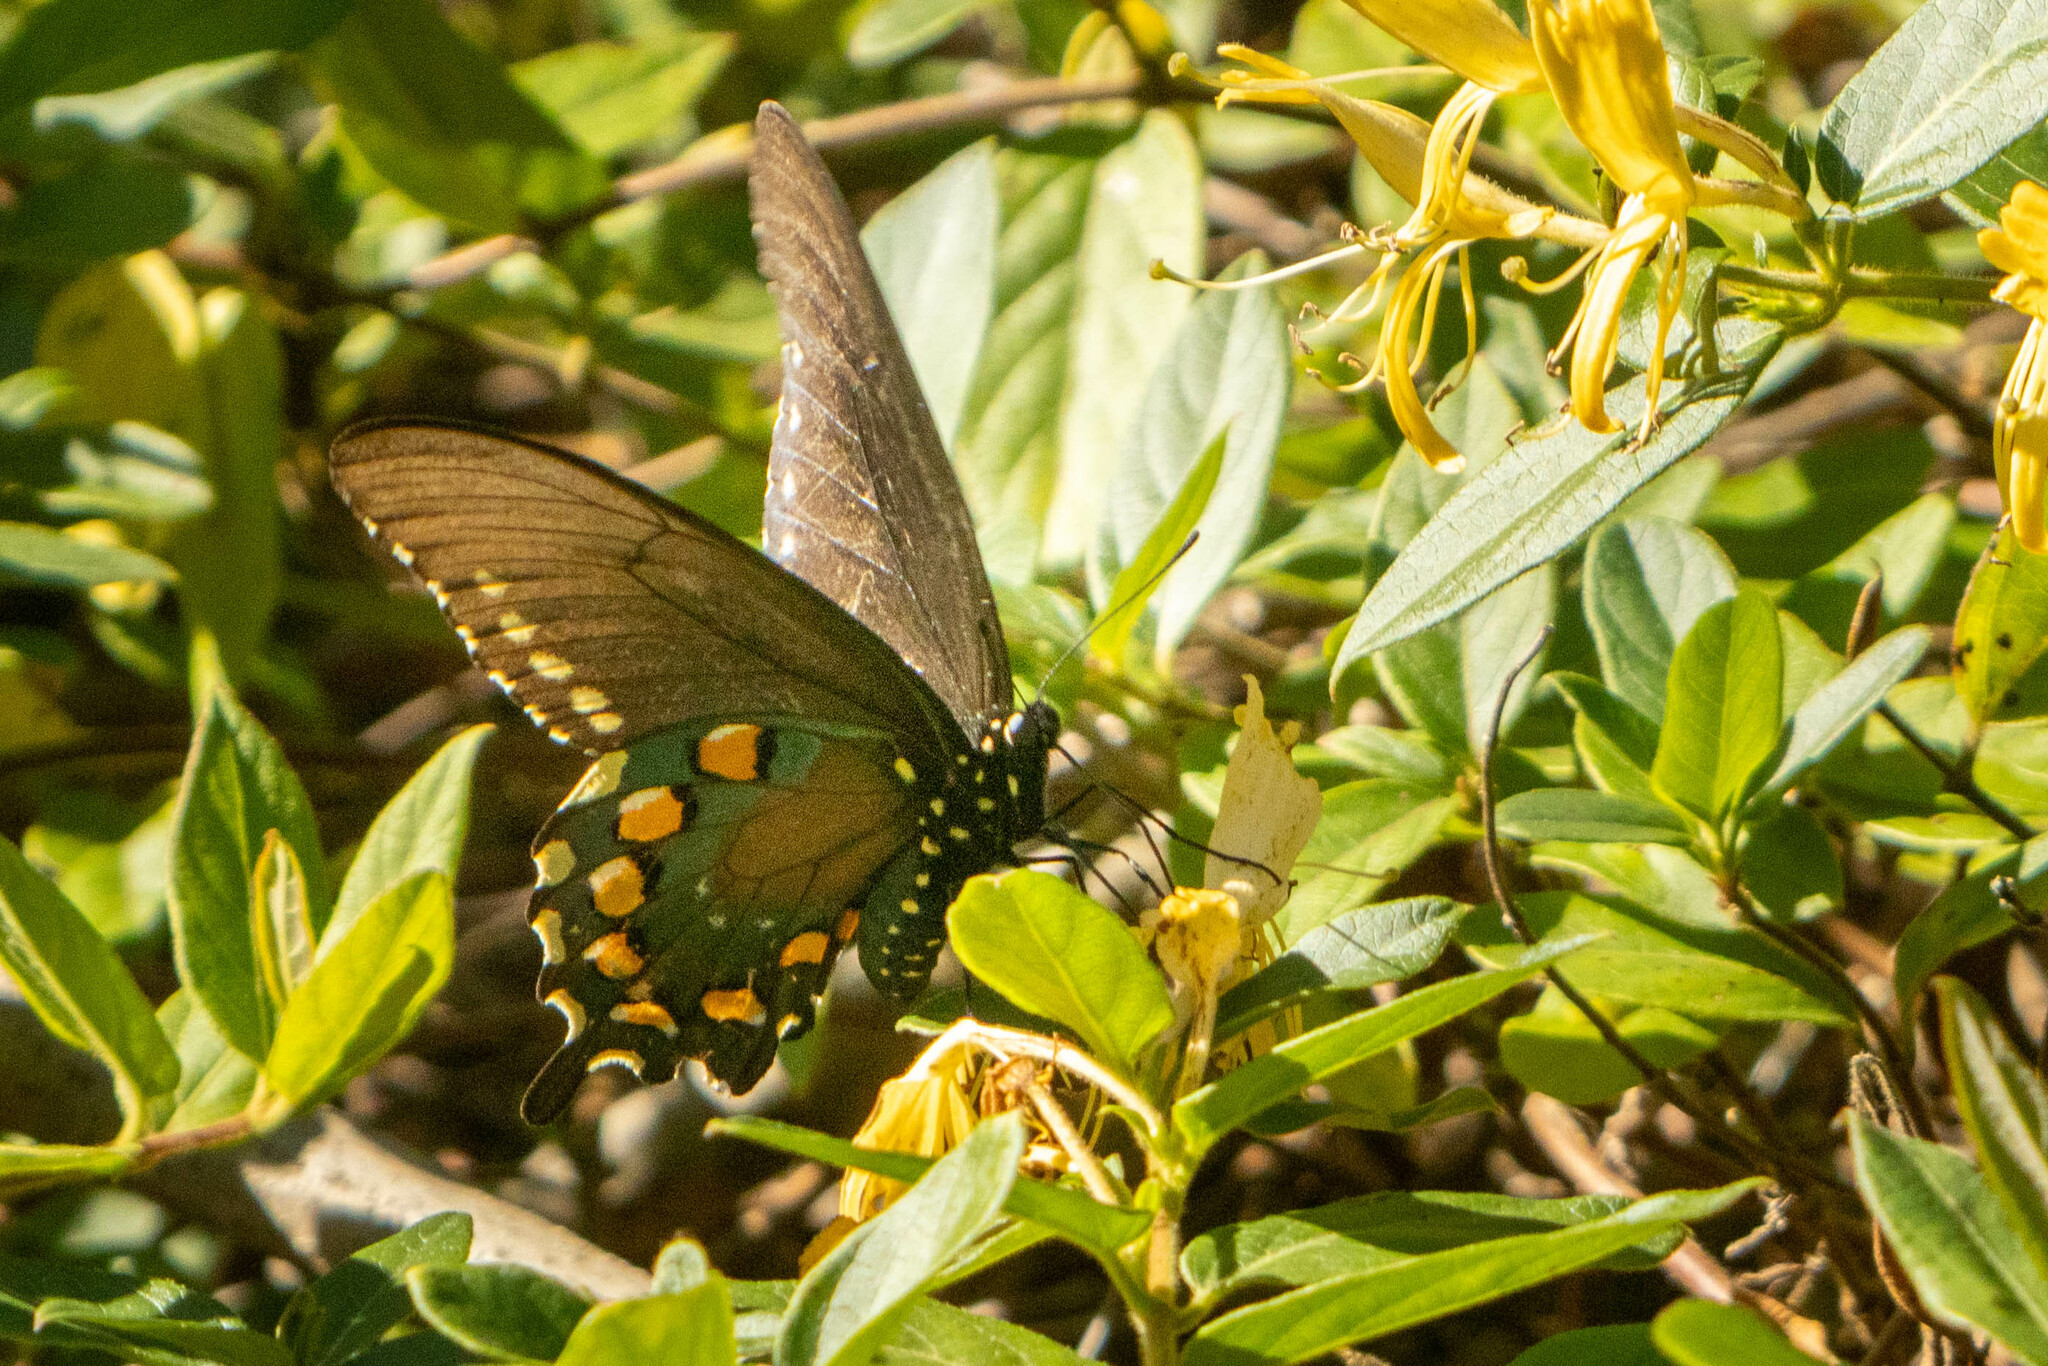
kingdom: Animalia
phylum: Arthropoda
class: Insecta
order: Lepidoptera
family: Papilionidae
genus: Battus
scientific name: Battus philenor
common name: Pipevine swallowtail
